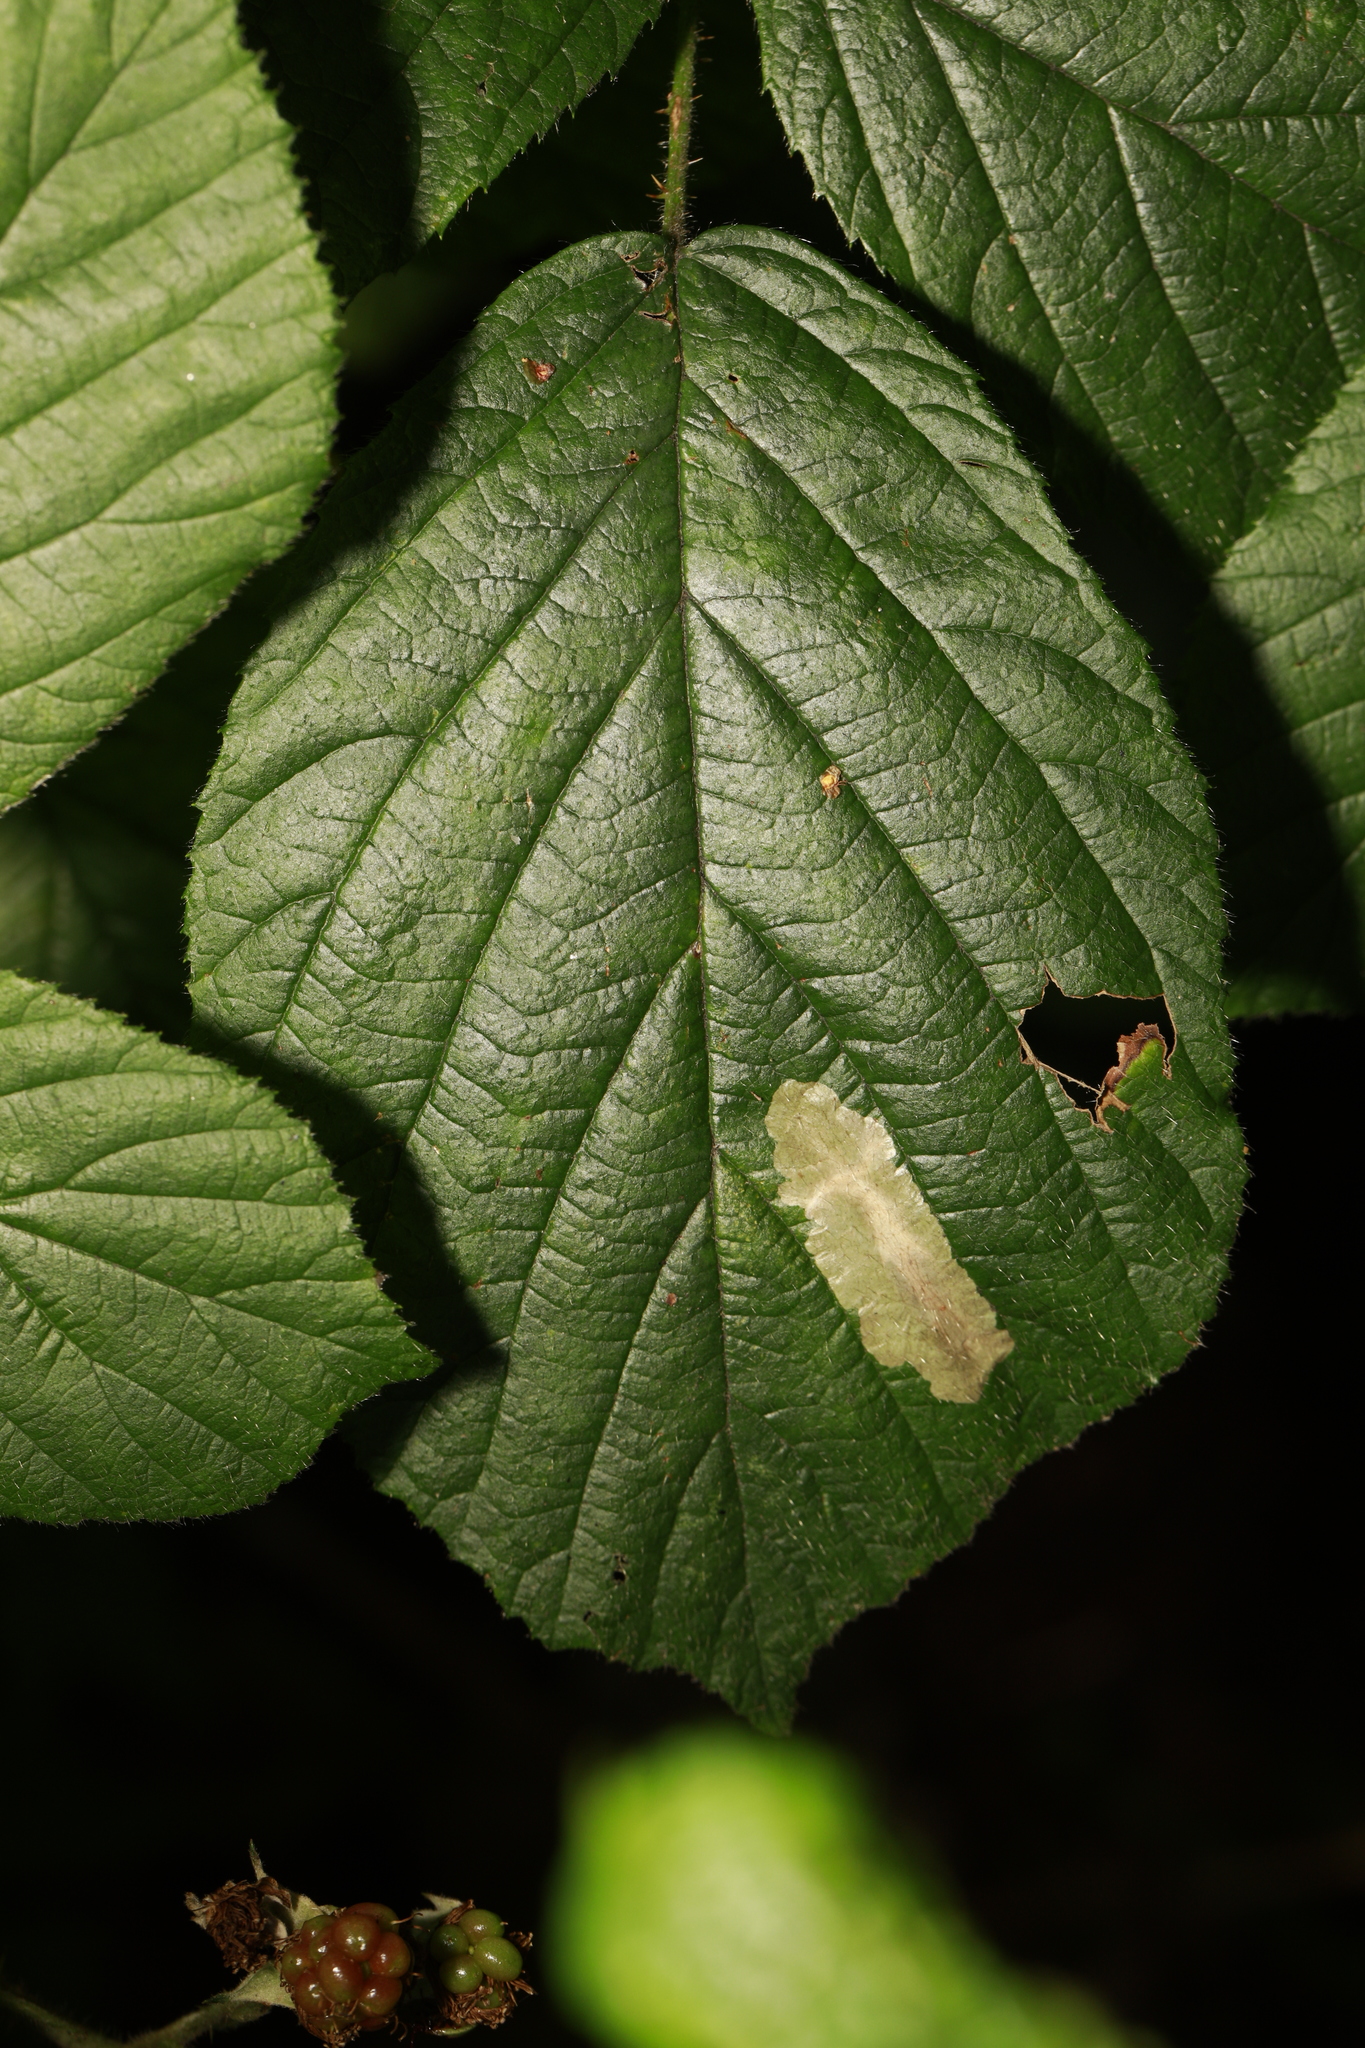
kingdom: Animalia
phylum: Arthropoda
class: Insecta
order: Lepidoptera
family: Tischeriidae
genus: Coptotriche
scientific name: Coptotriche marginea
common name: Bordered carl
